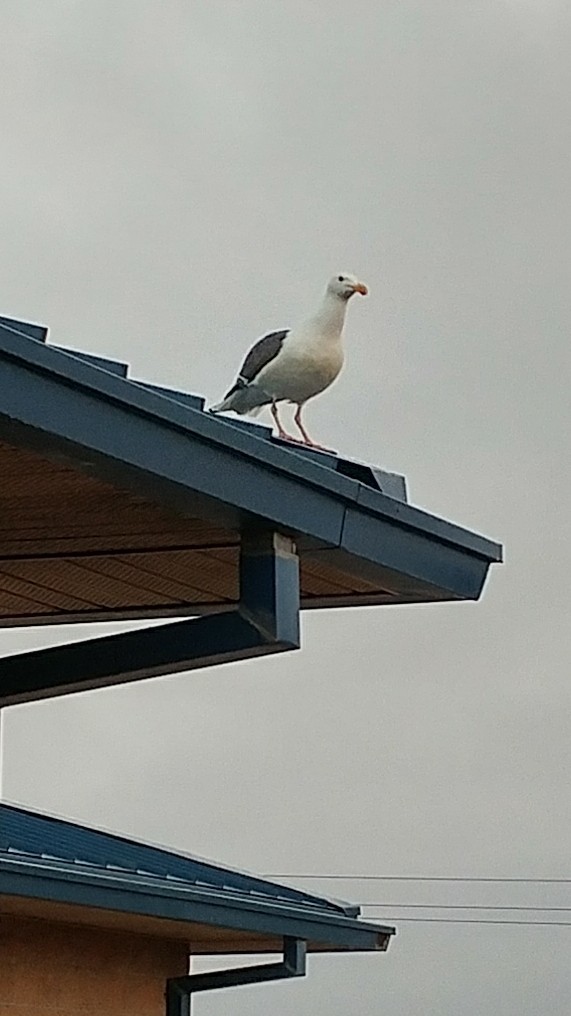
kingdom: Animalia
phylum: Chordata
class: Aves
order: Charadriiformes
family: Laridae
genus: Larus
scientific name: Larus occidentalis
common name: Western gull
